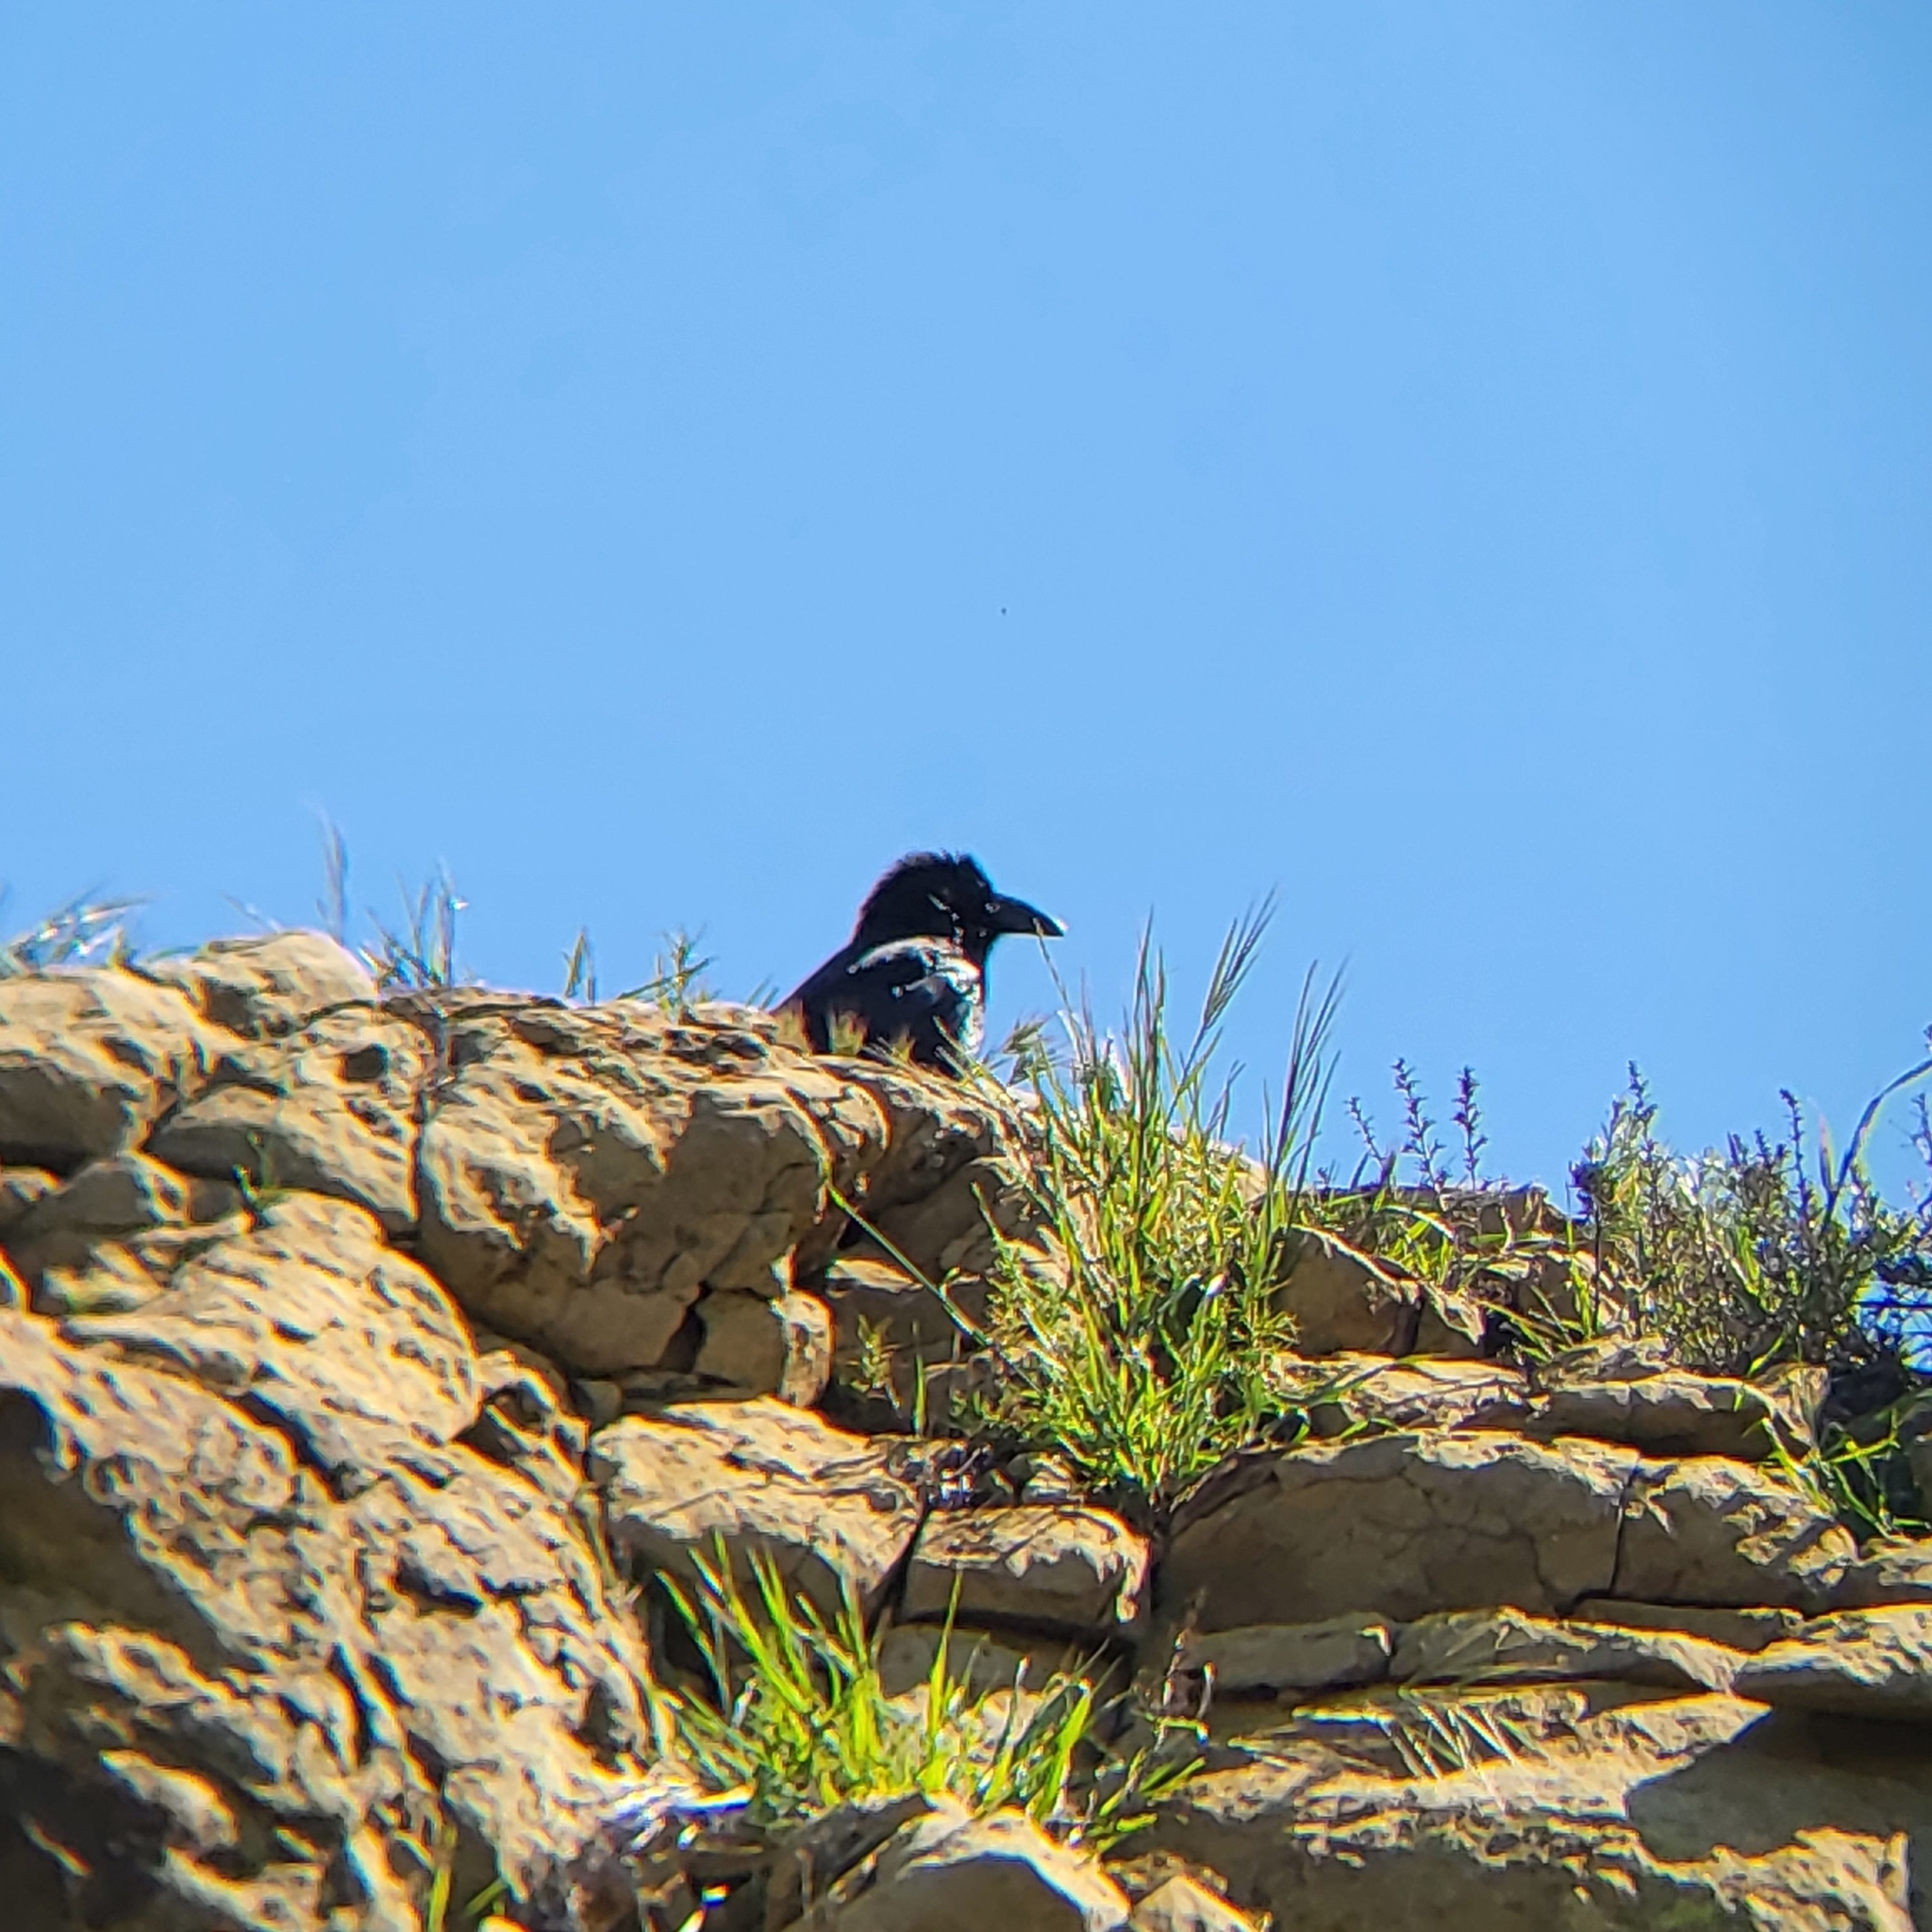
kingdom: Animalia
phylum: Chordata
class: Aves
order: Passeriformes
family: Corvidae
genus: Corvus
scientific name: Corvus corax
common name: Common raven
